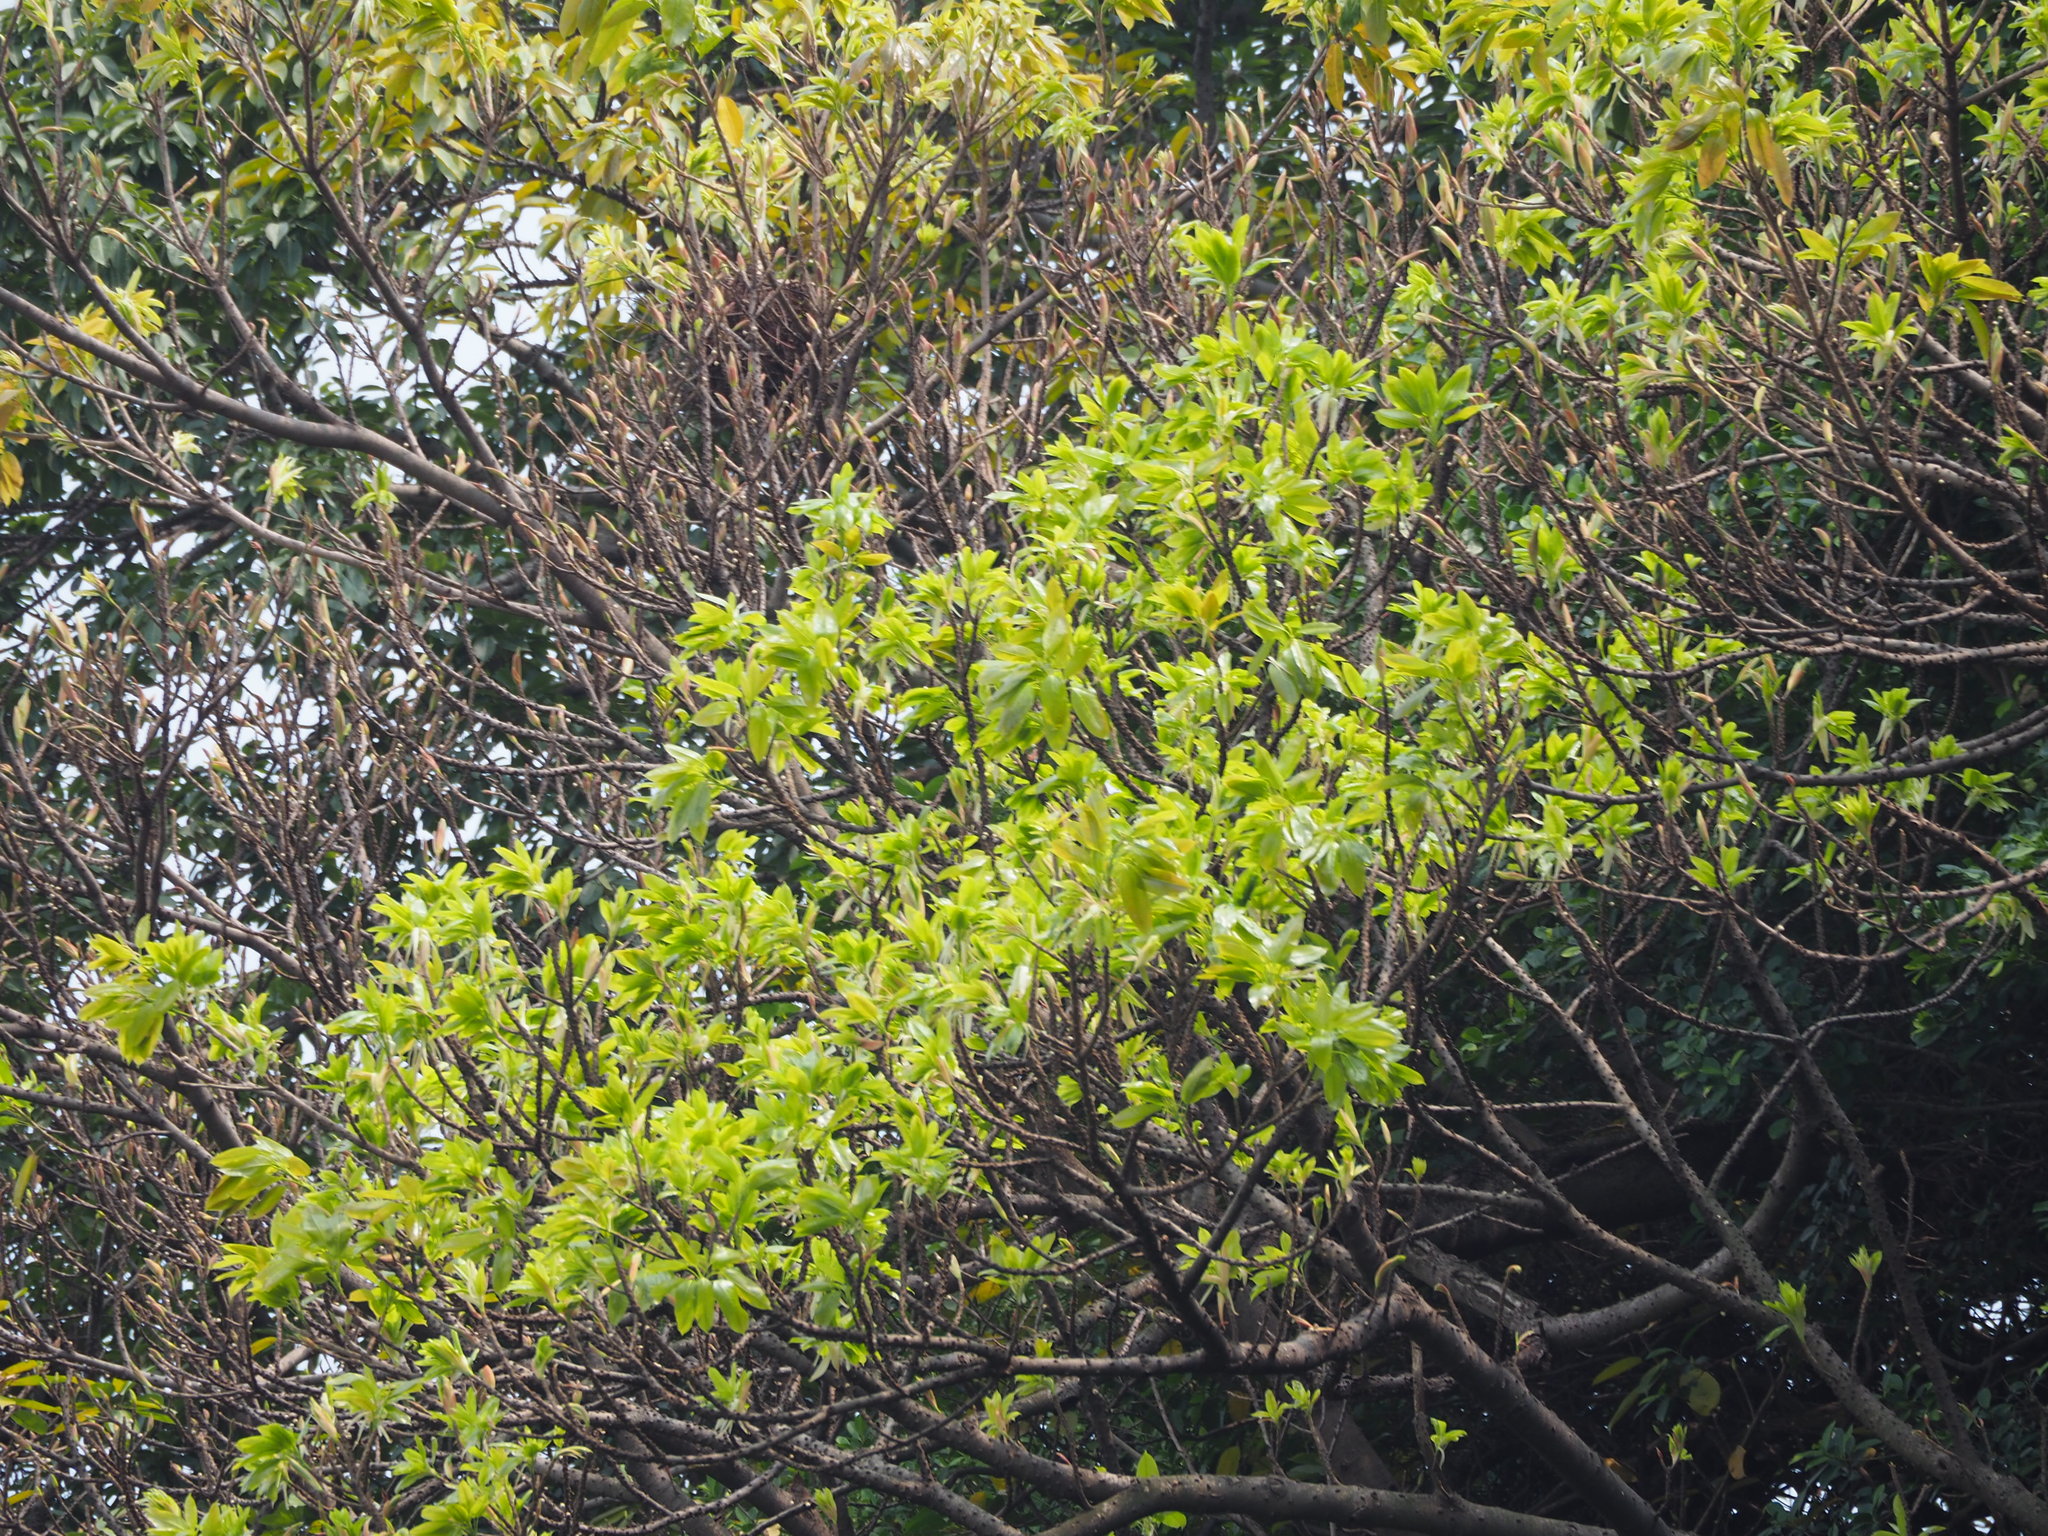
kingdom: Plantae
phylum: Tracheophyta
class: Magnoliopsida
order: Rosales
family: Moraceae
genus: Ficus
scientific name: Ficus subpisocarpa
